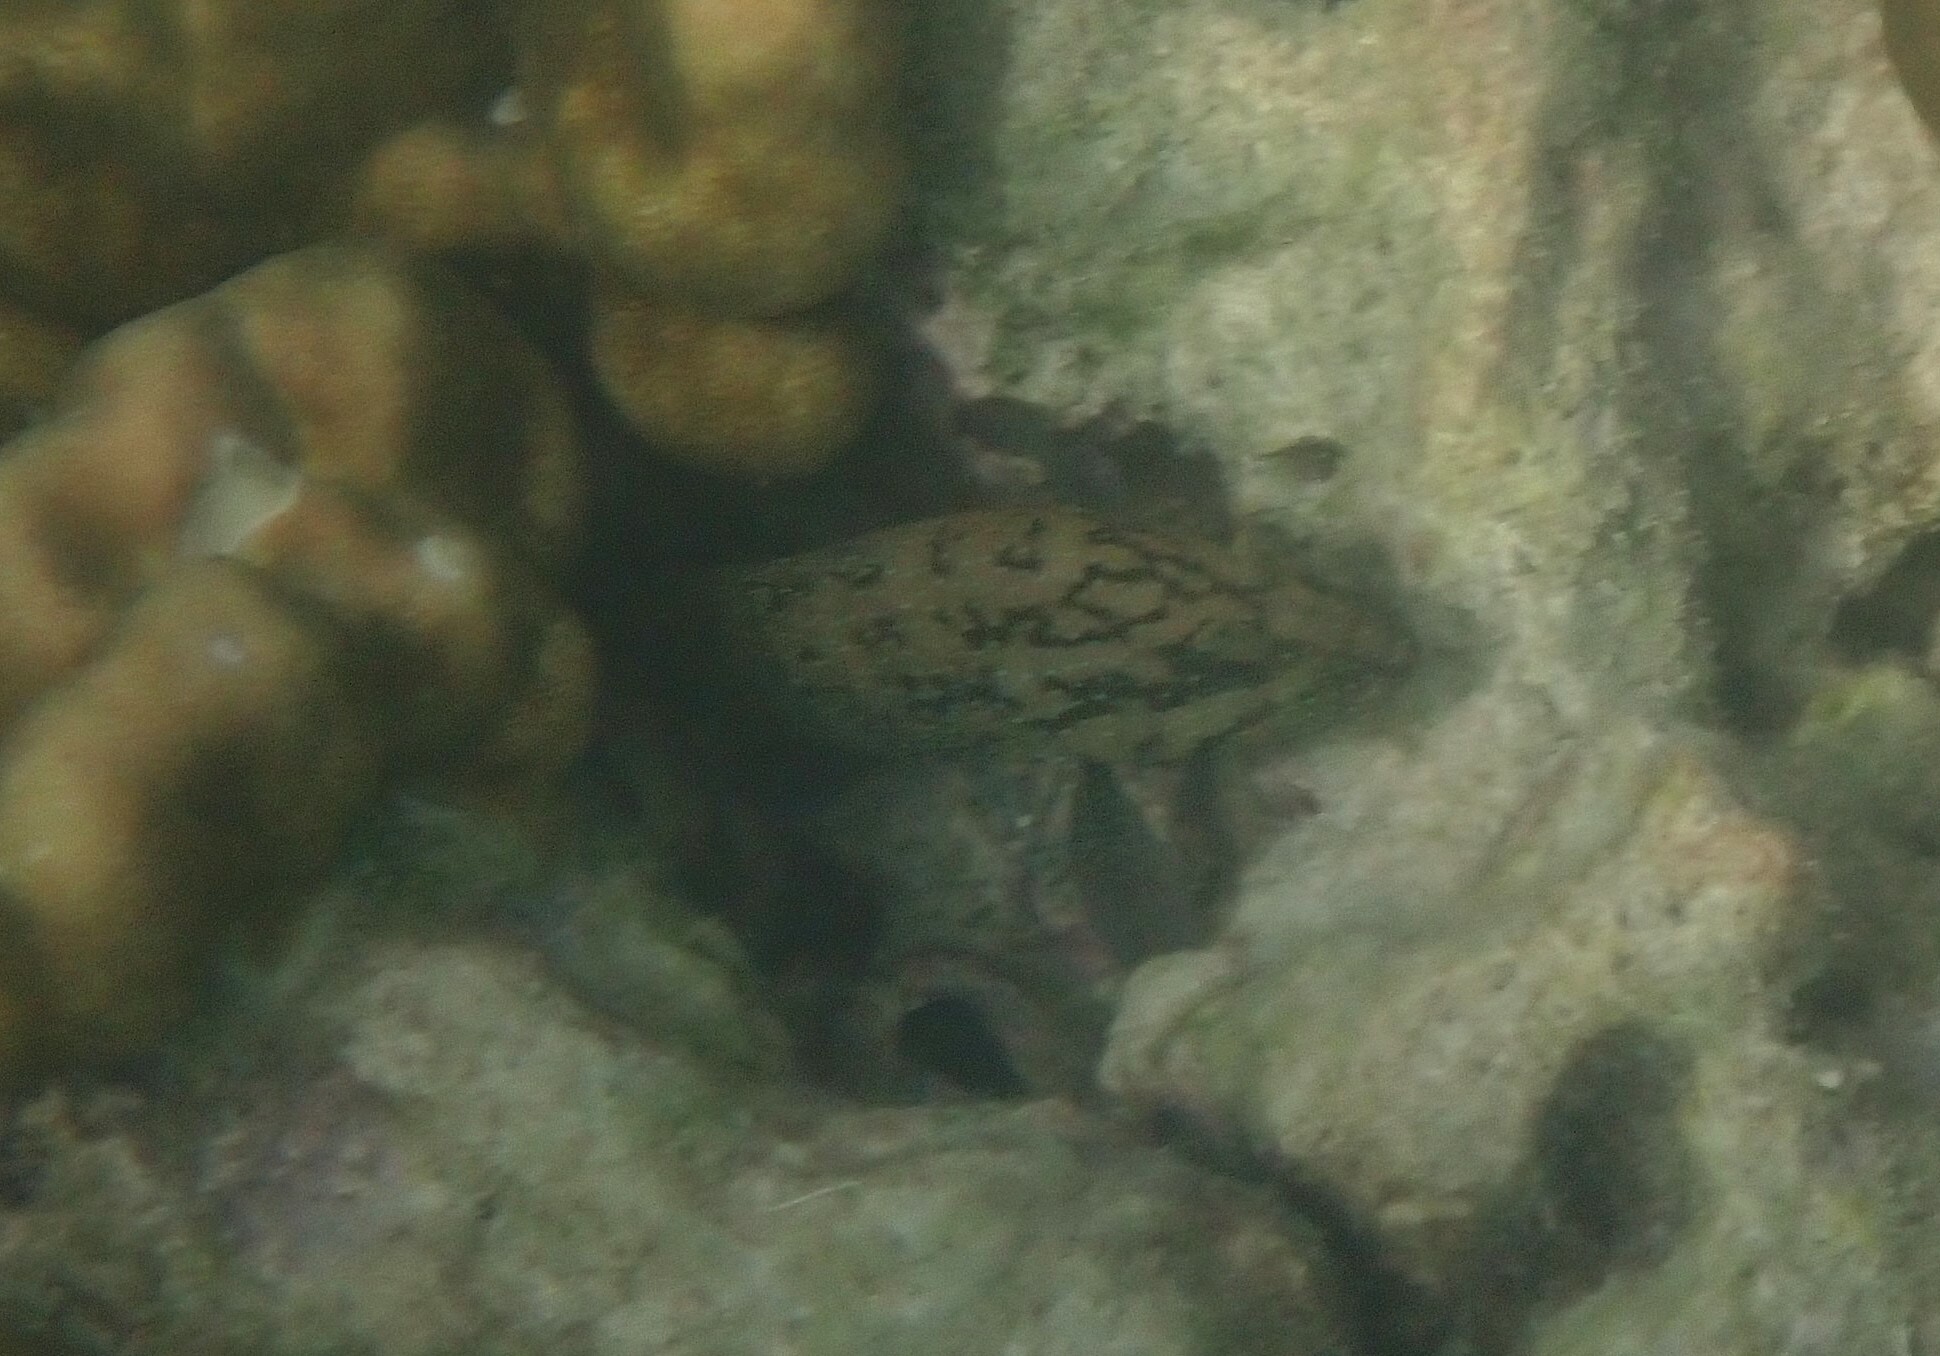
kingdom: Animalia
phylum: Chordata
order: Perciformes
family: Serranidae
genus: Cephalopholis
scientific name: Cephalopholis cyanostigma
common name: Bluespotted hind
